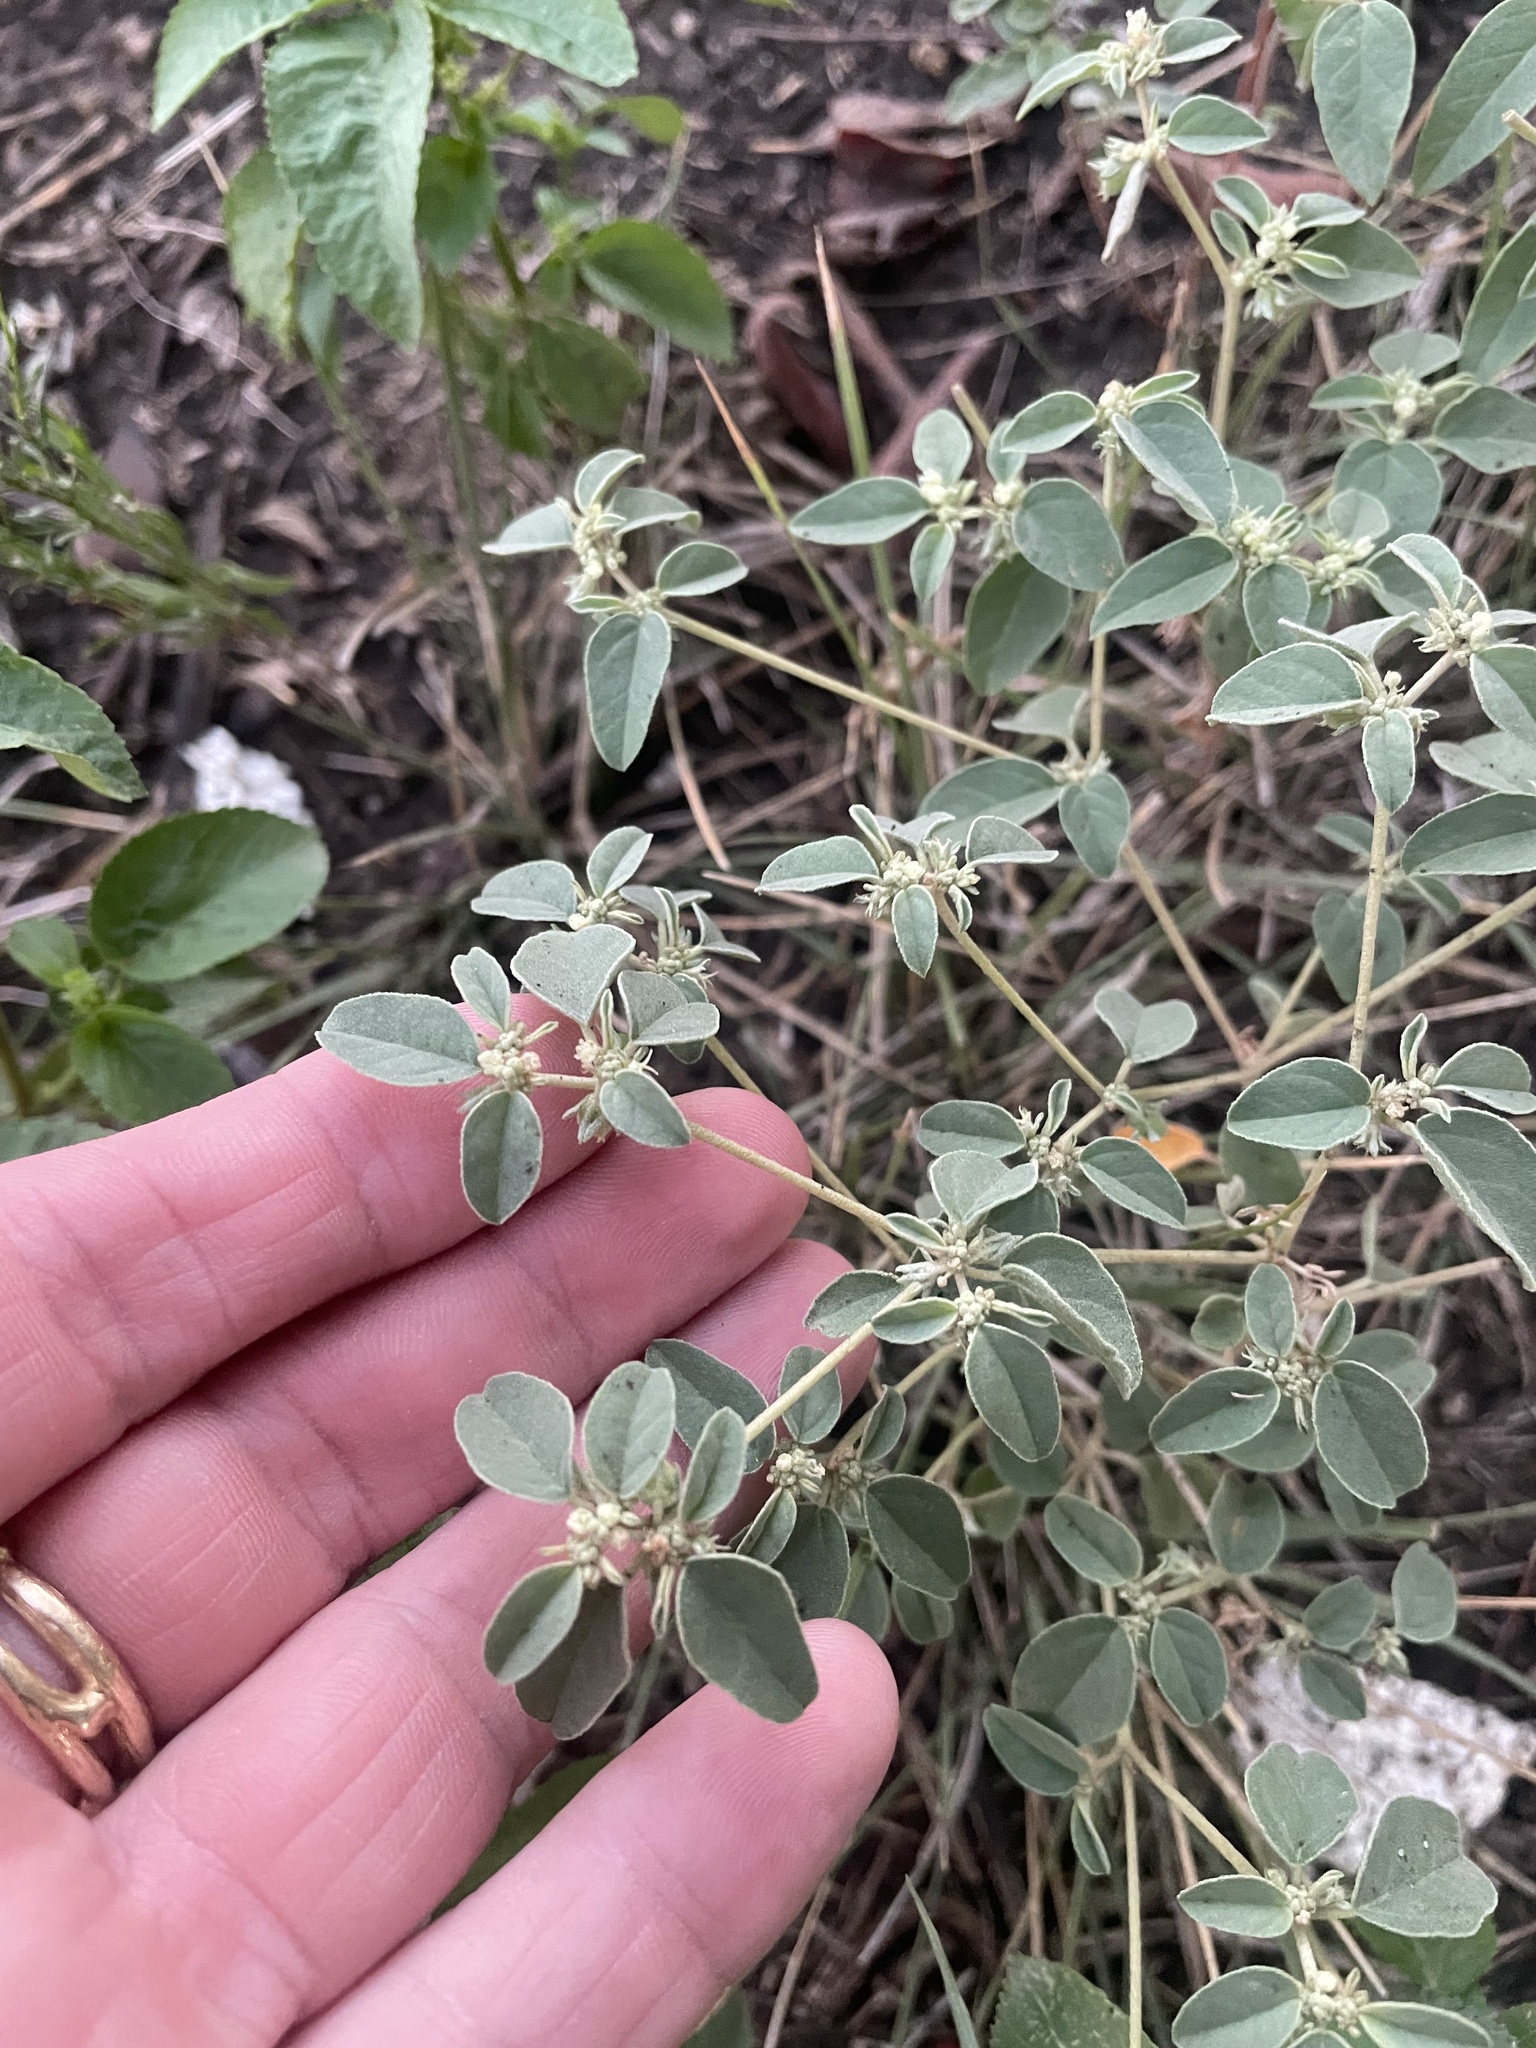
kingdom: Plantae
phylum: Tracheophyta
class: Magnoliopsida
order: Malpighiales
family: Euphorbiaceae
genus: Croton
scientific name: Croton monanthogynus
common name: One-seed croton
